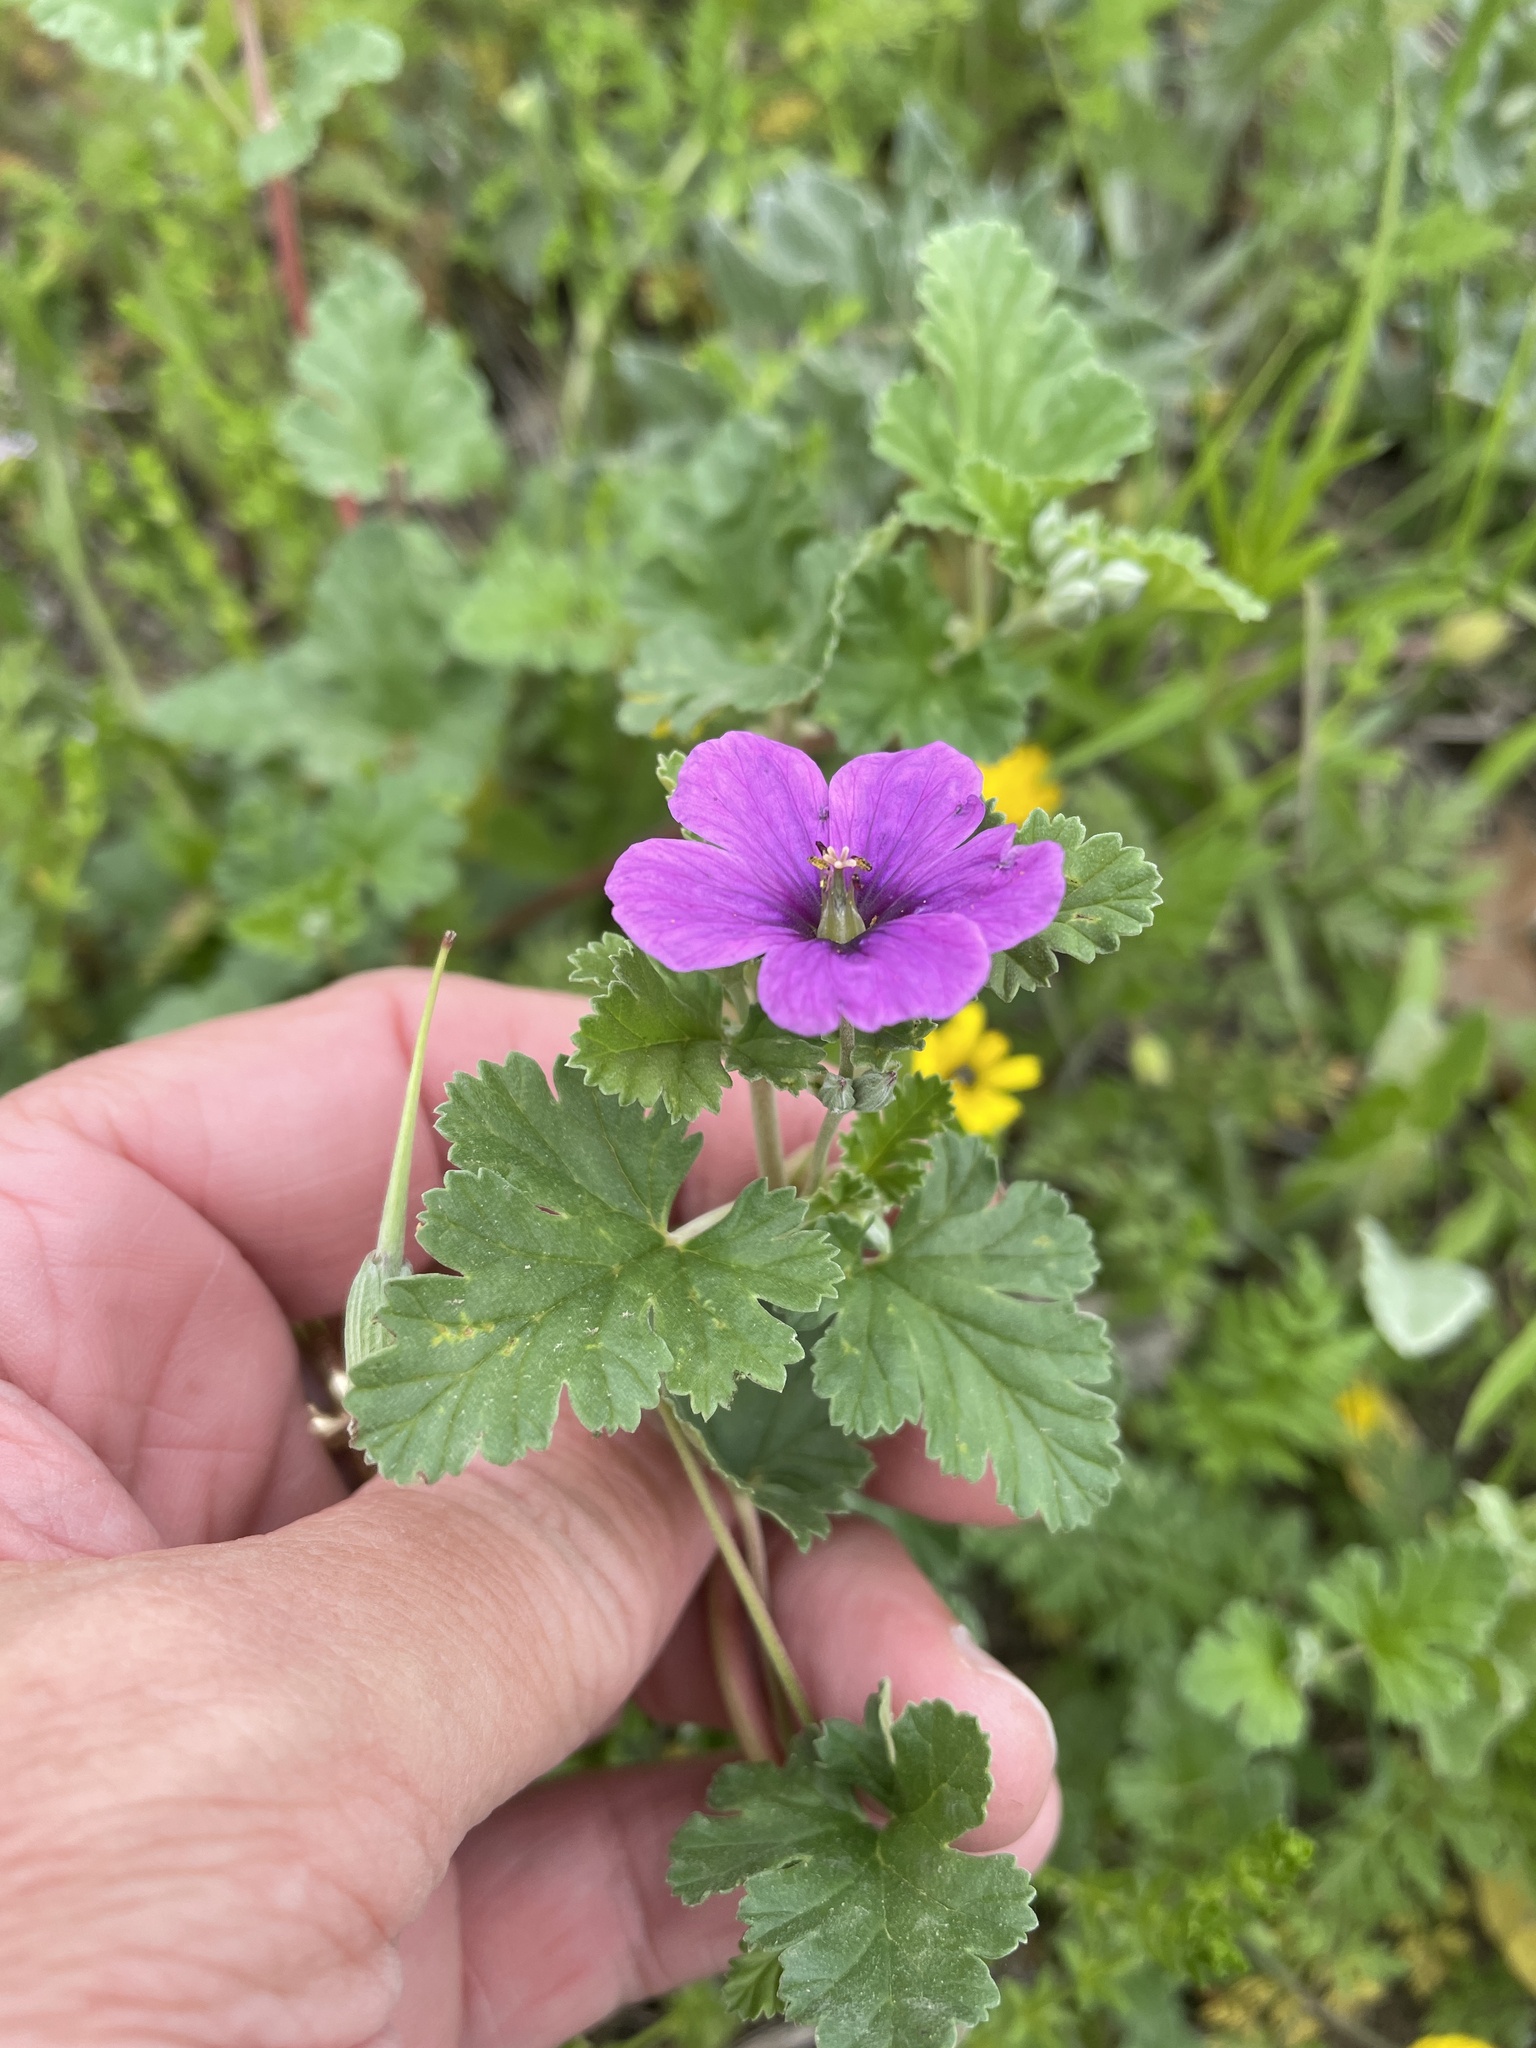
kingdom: Plantae
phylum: Tracheophyta
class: Magnoliopsida
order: Geraniales
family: Geraniaceae
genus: Erodium
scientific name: Erodium texanum
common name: Texas stork's-bill
